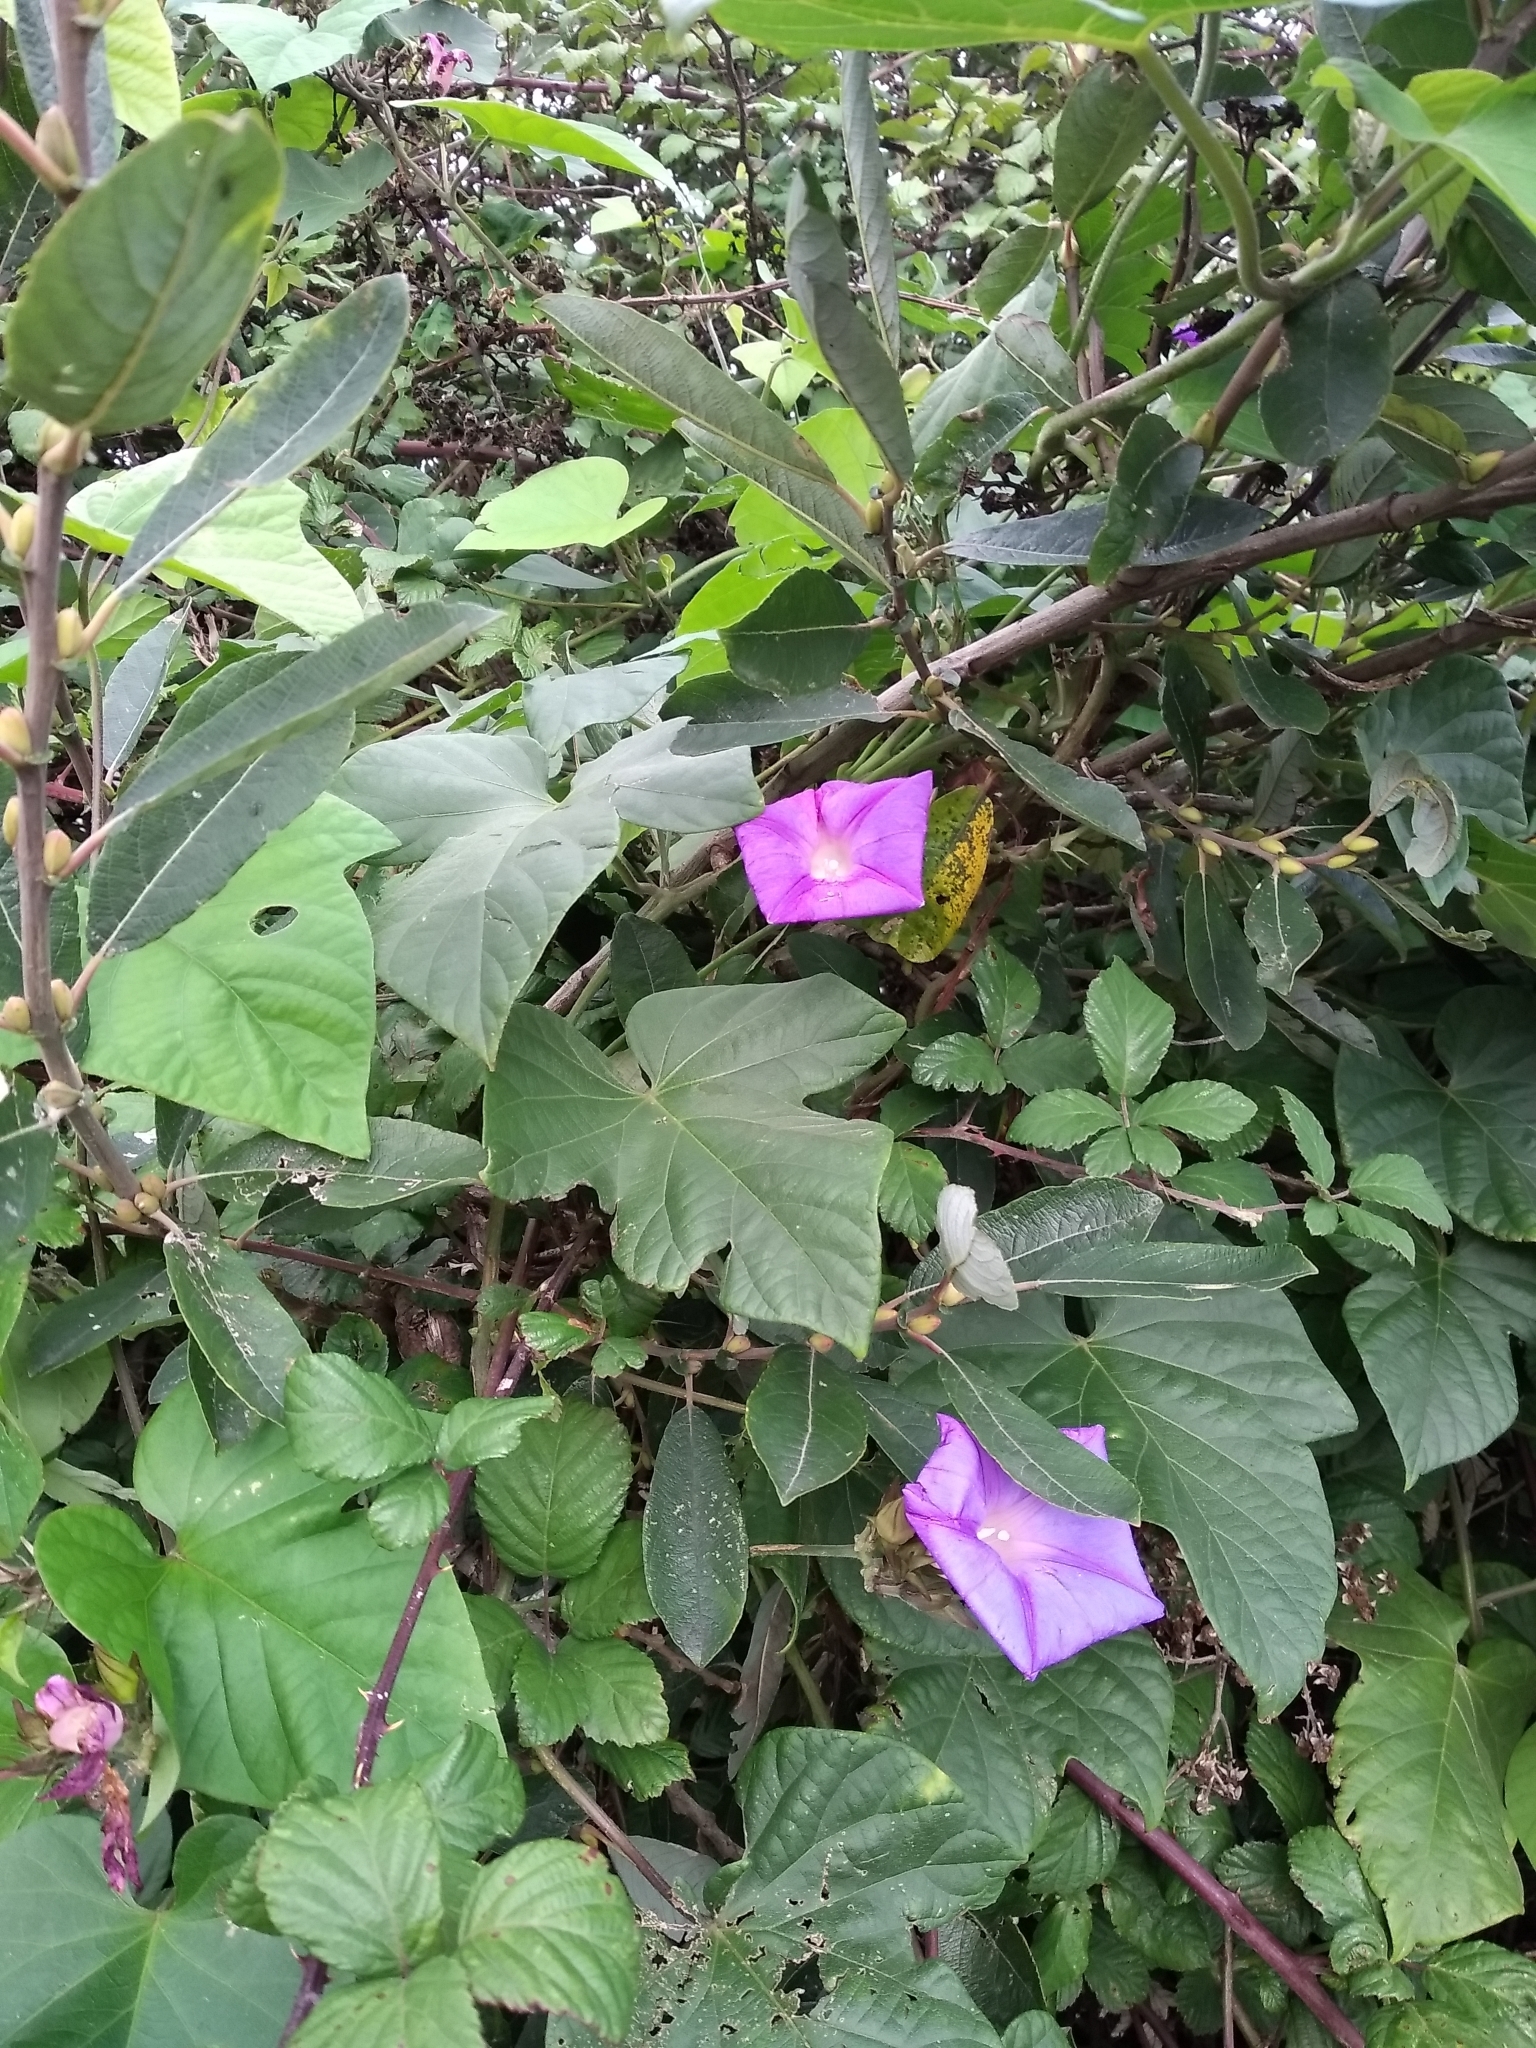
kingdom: Plantae
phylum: Tracheophyta
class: Magnoliopsida
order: Solanales
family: Convolvulaceae
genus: Ipomoea
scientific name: Ipomoea indica
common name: Blue dawnflower
